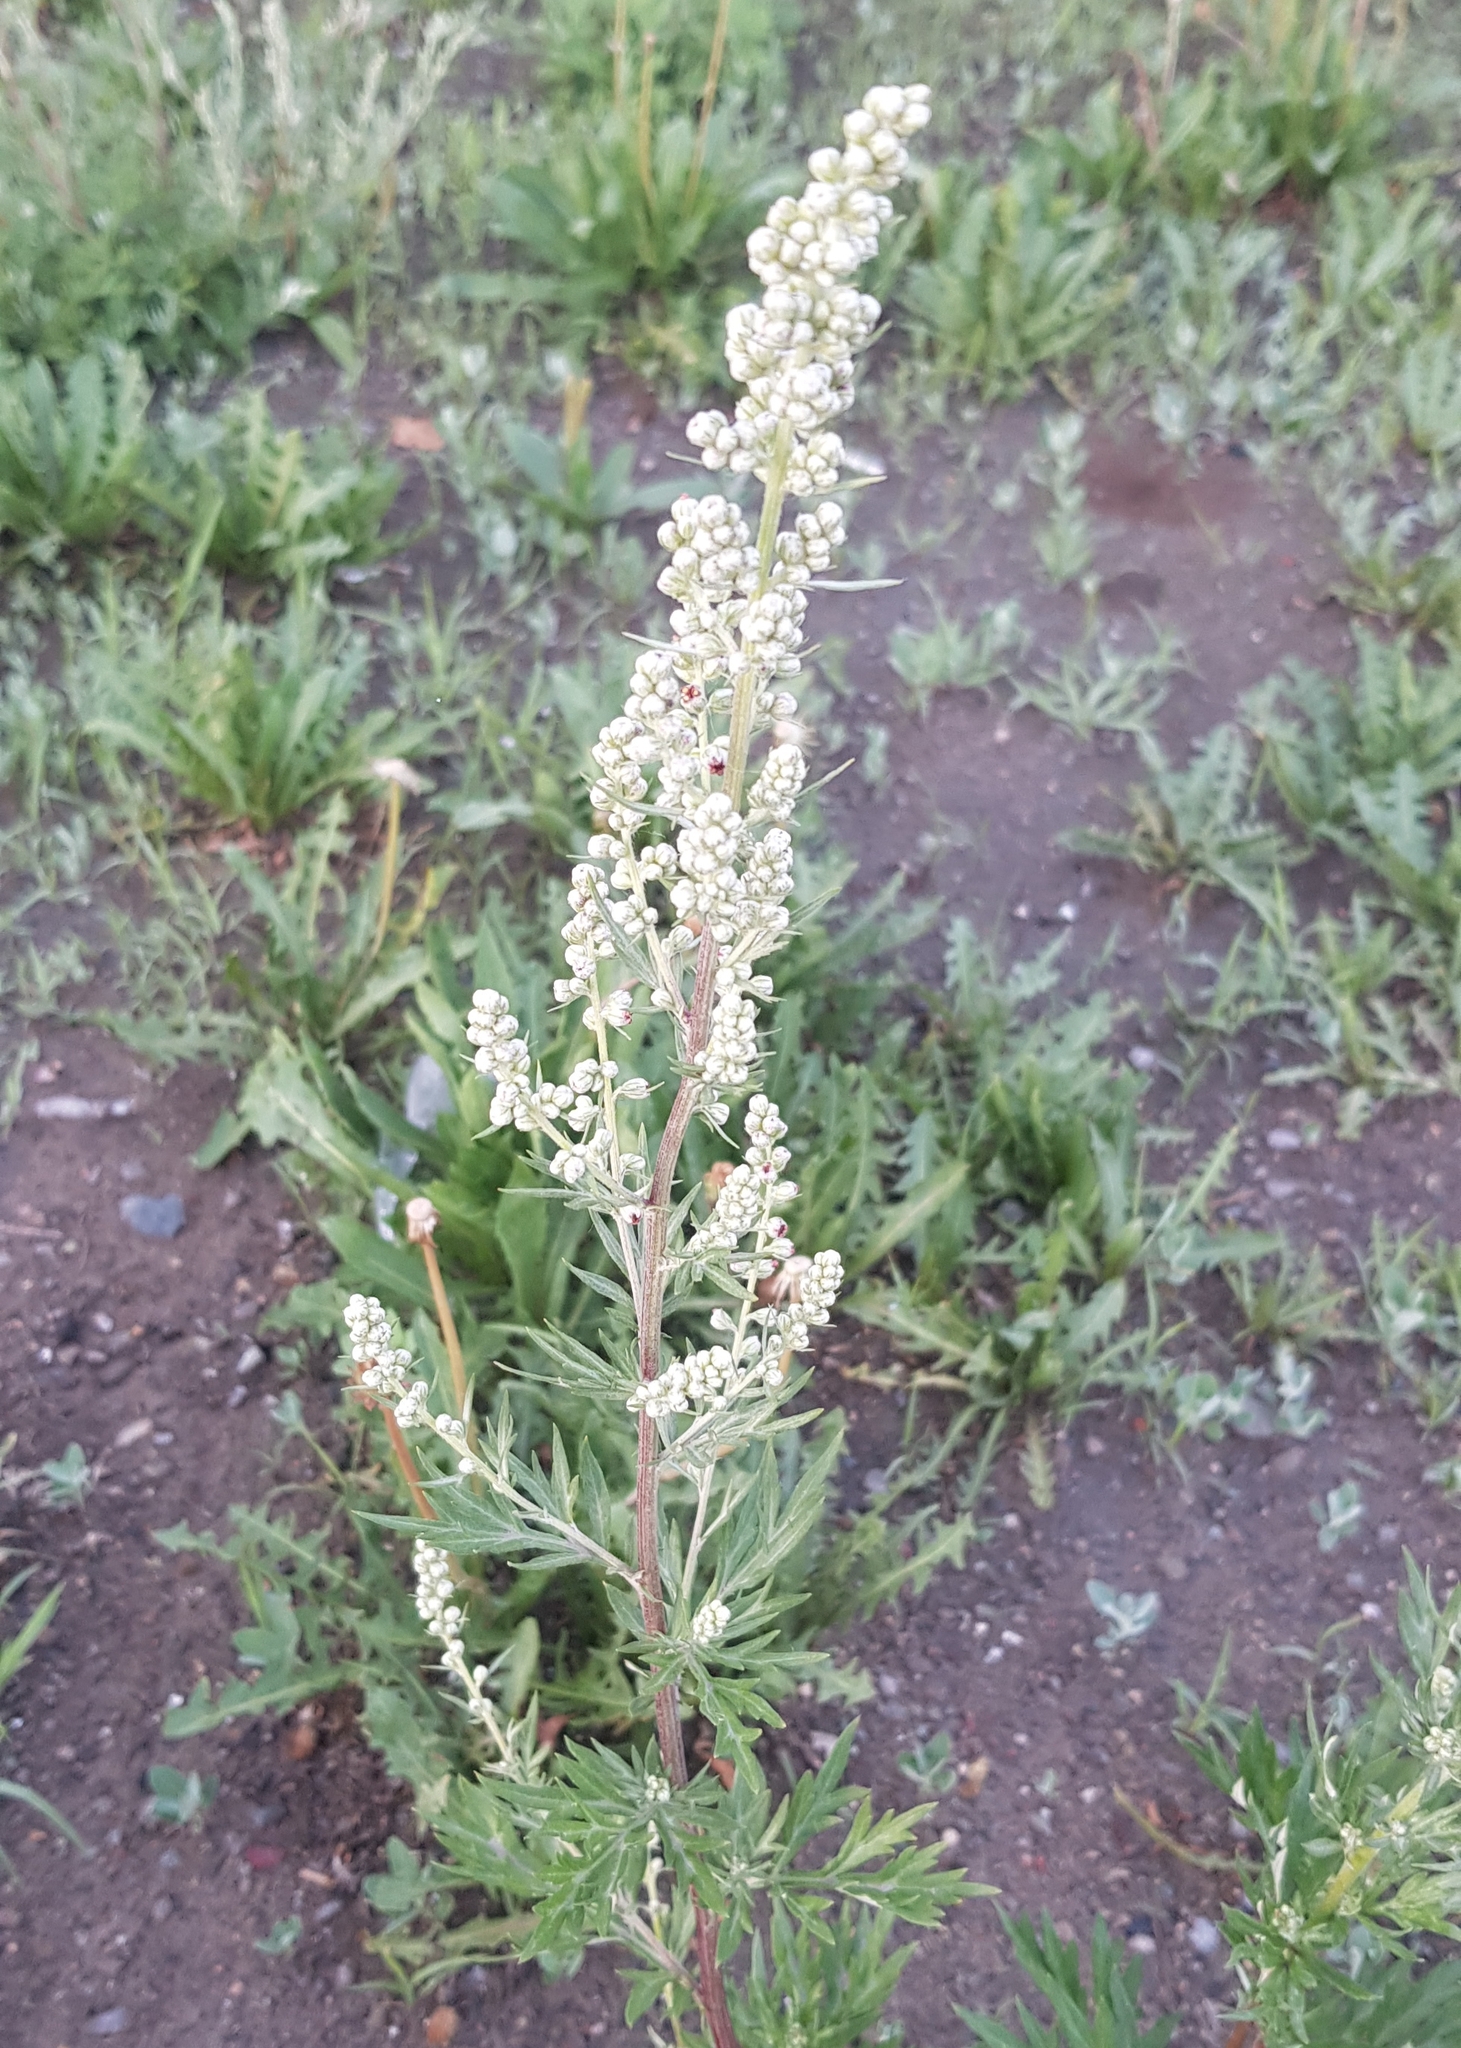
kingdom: Plantae
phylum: Tracheophyta
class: Magnoliopsida
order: Asterales
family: Asteraceae
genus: Artemisia
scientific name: Artemisia vulgaris
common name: Mugwort
